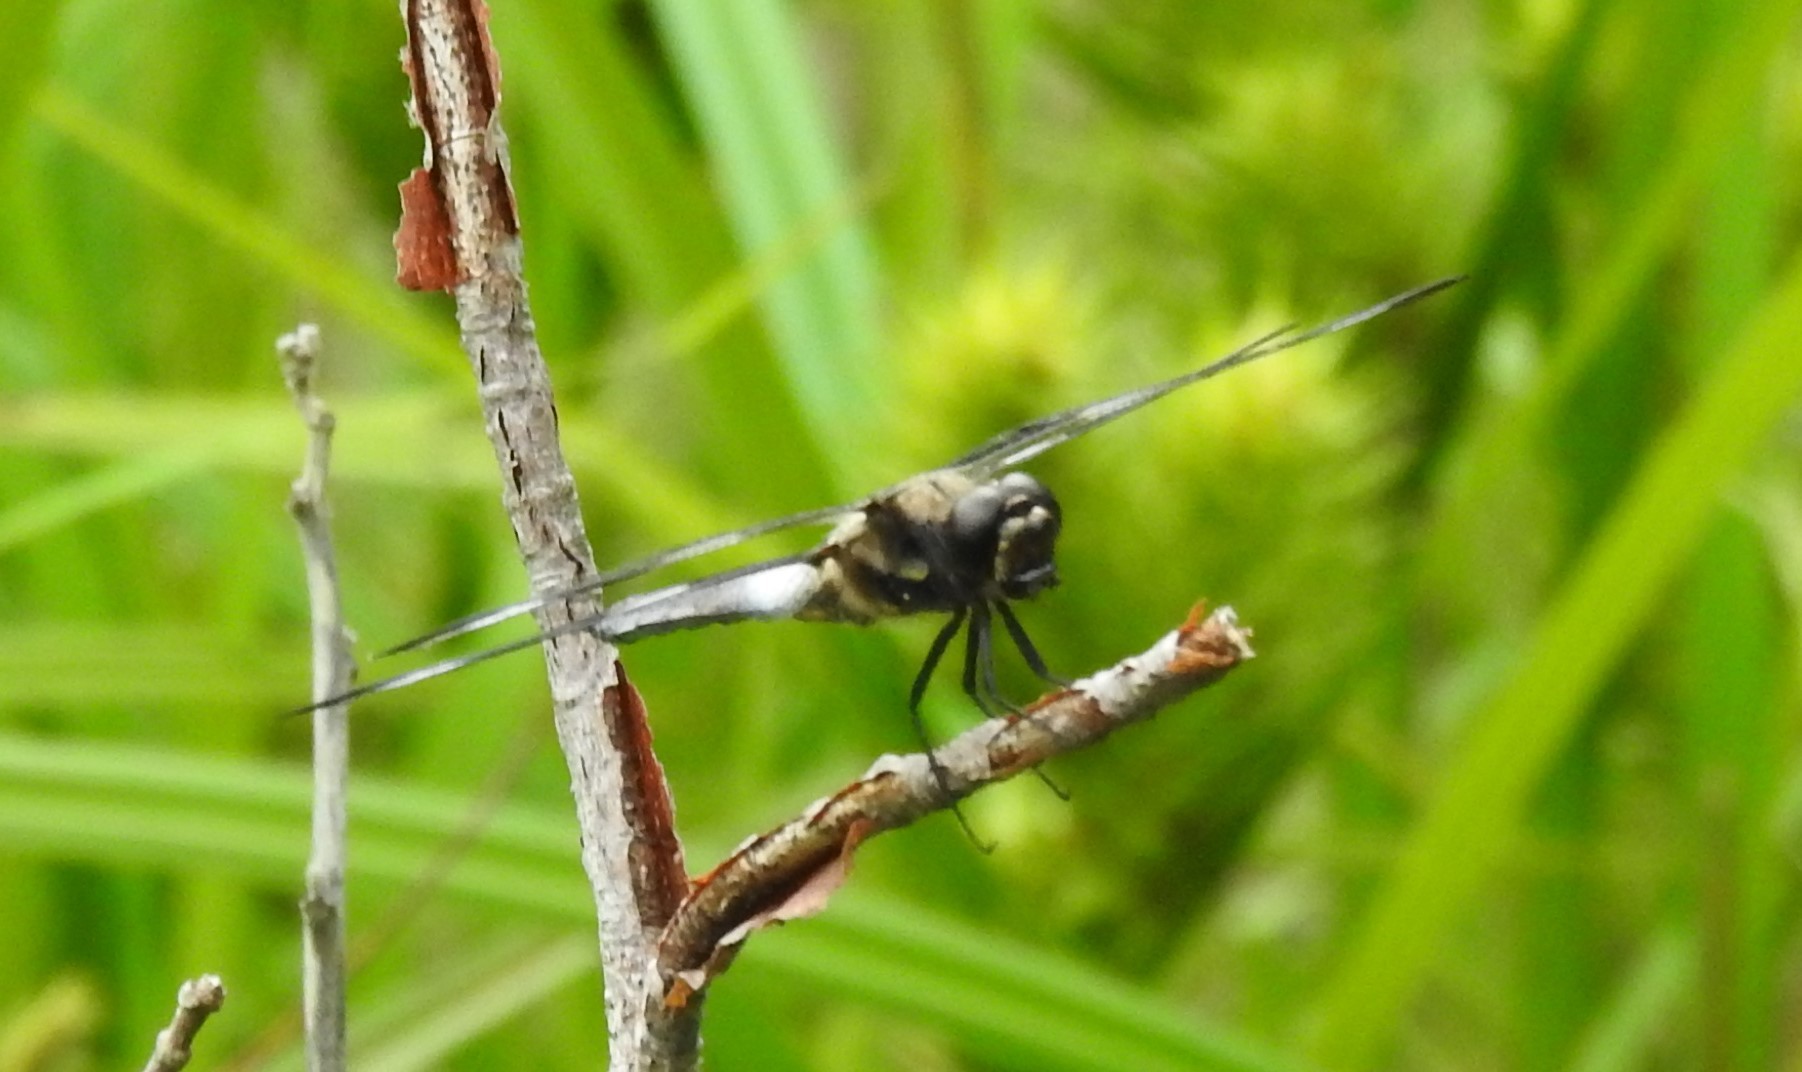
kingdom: Animalia
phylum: Arthropoda
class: Insecta
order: Odonata
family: Libellulidae
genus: Libellula
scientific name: Libellula pulchella
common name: Twelve-spotted skimmer
